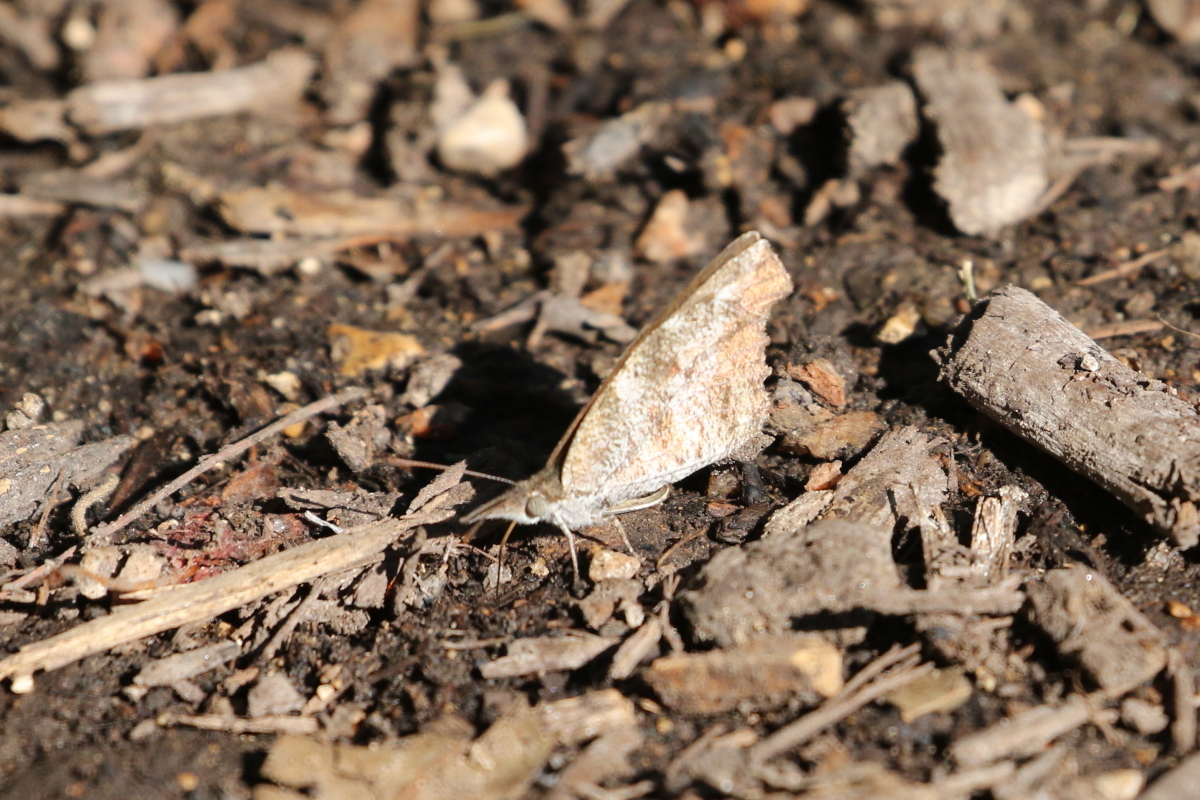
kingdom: Animalia
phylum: Arthropoda
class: Insecta
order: Lepidoptera
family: Nymphalidae
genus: Libytheana
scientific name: Libytheana carinenta
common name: American snout
